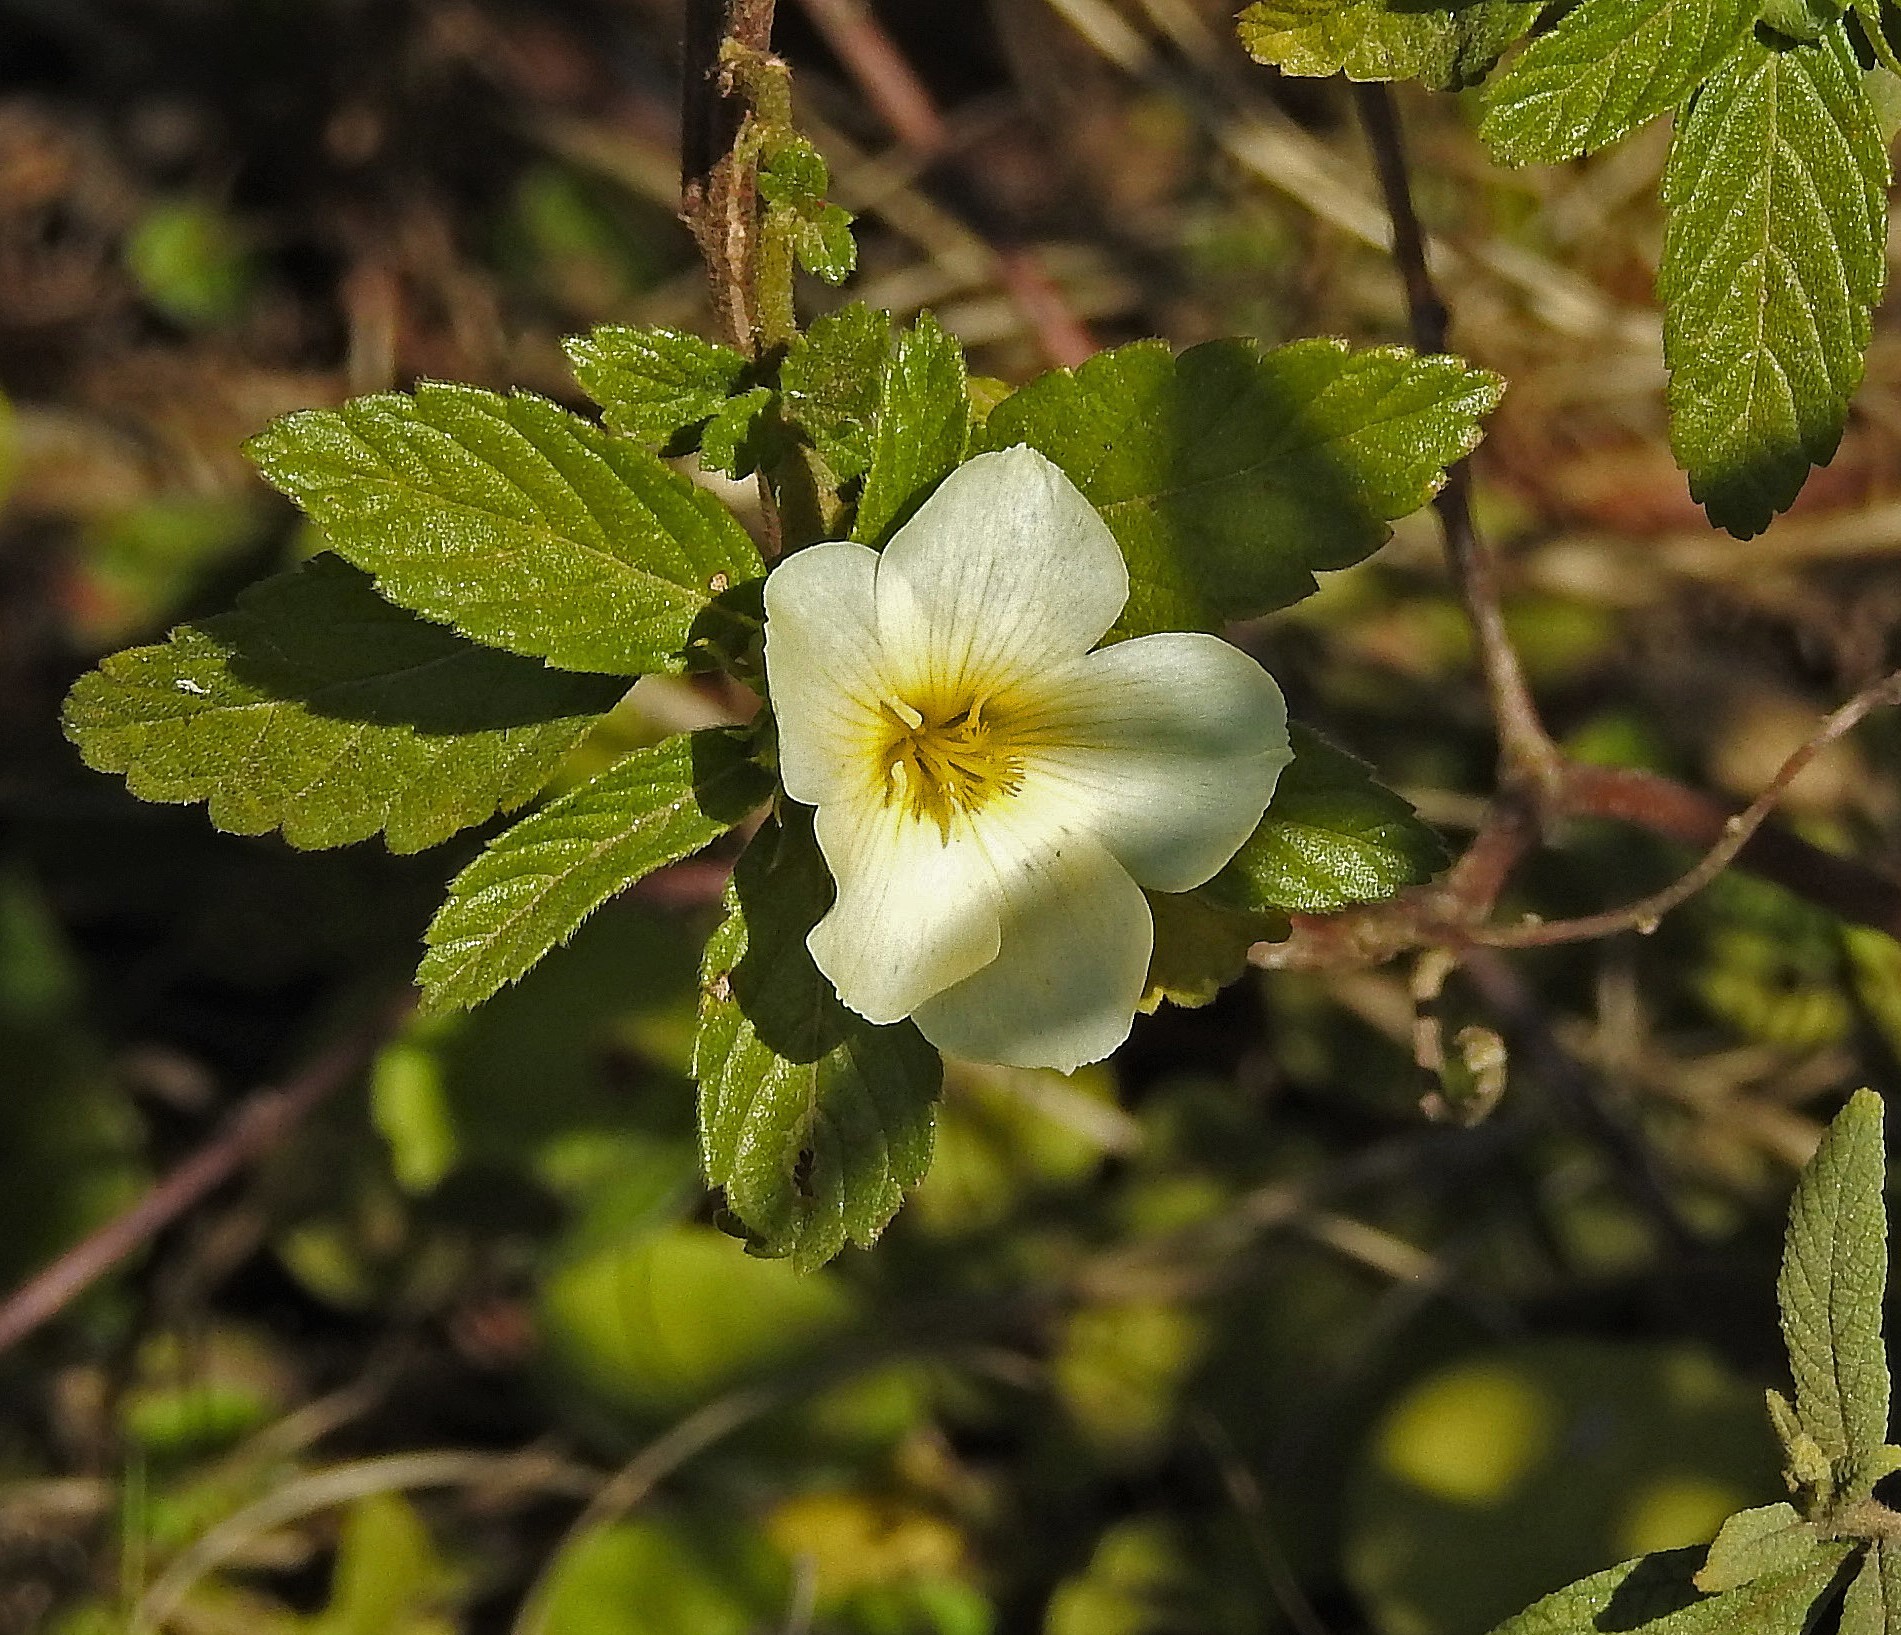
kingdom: Plantae
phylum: Tracheophyta
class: Magnoliopsida
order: Malpighiales
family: Turneraceae
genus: Turnera
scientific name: Turnera orientalis
